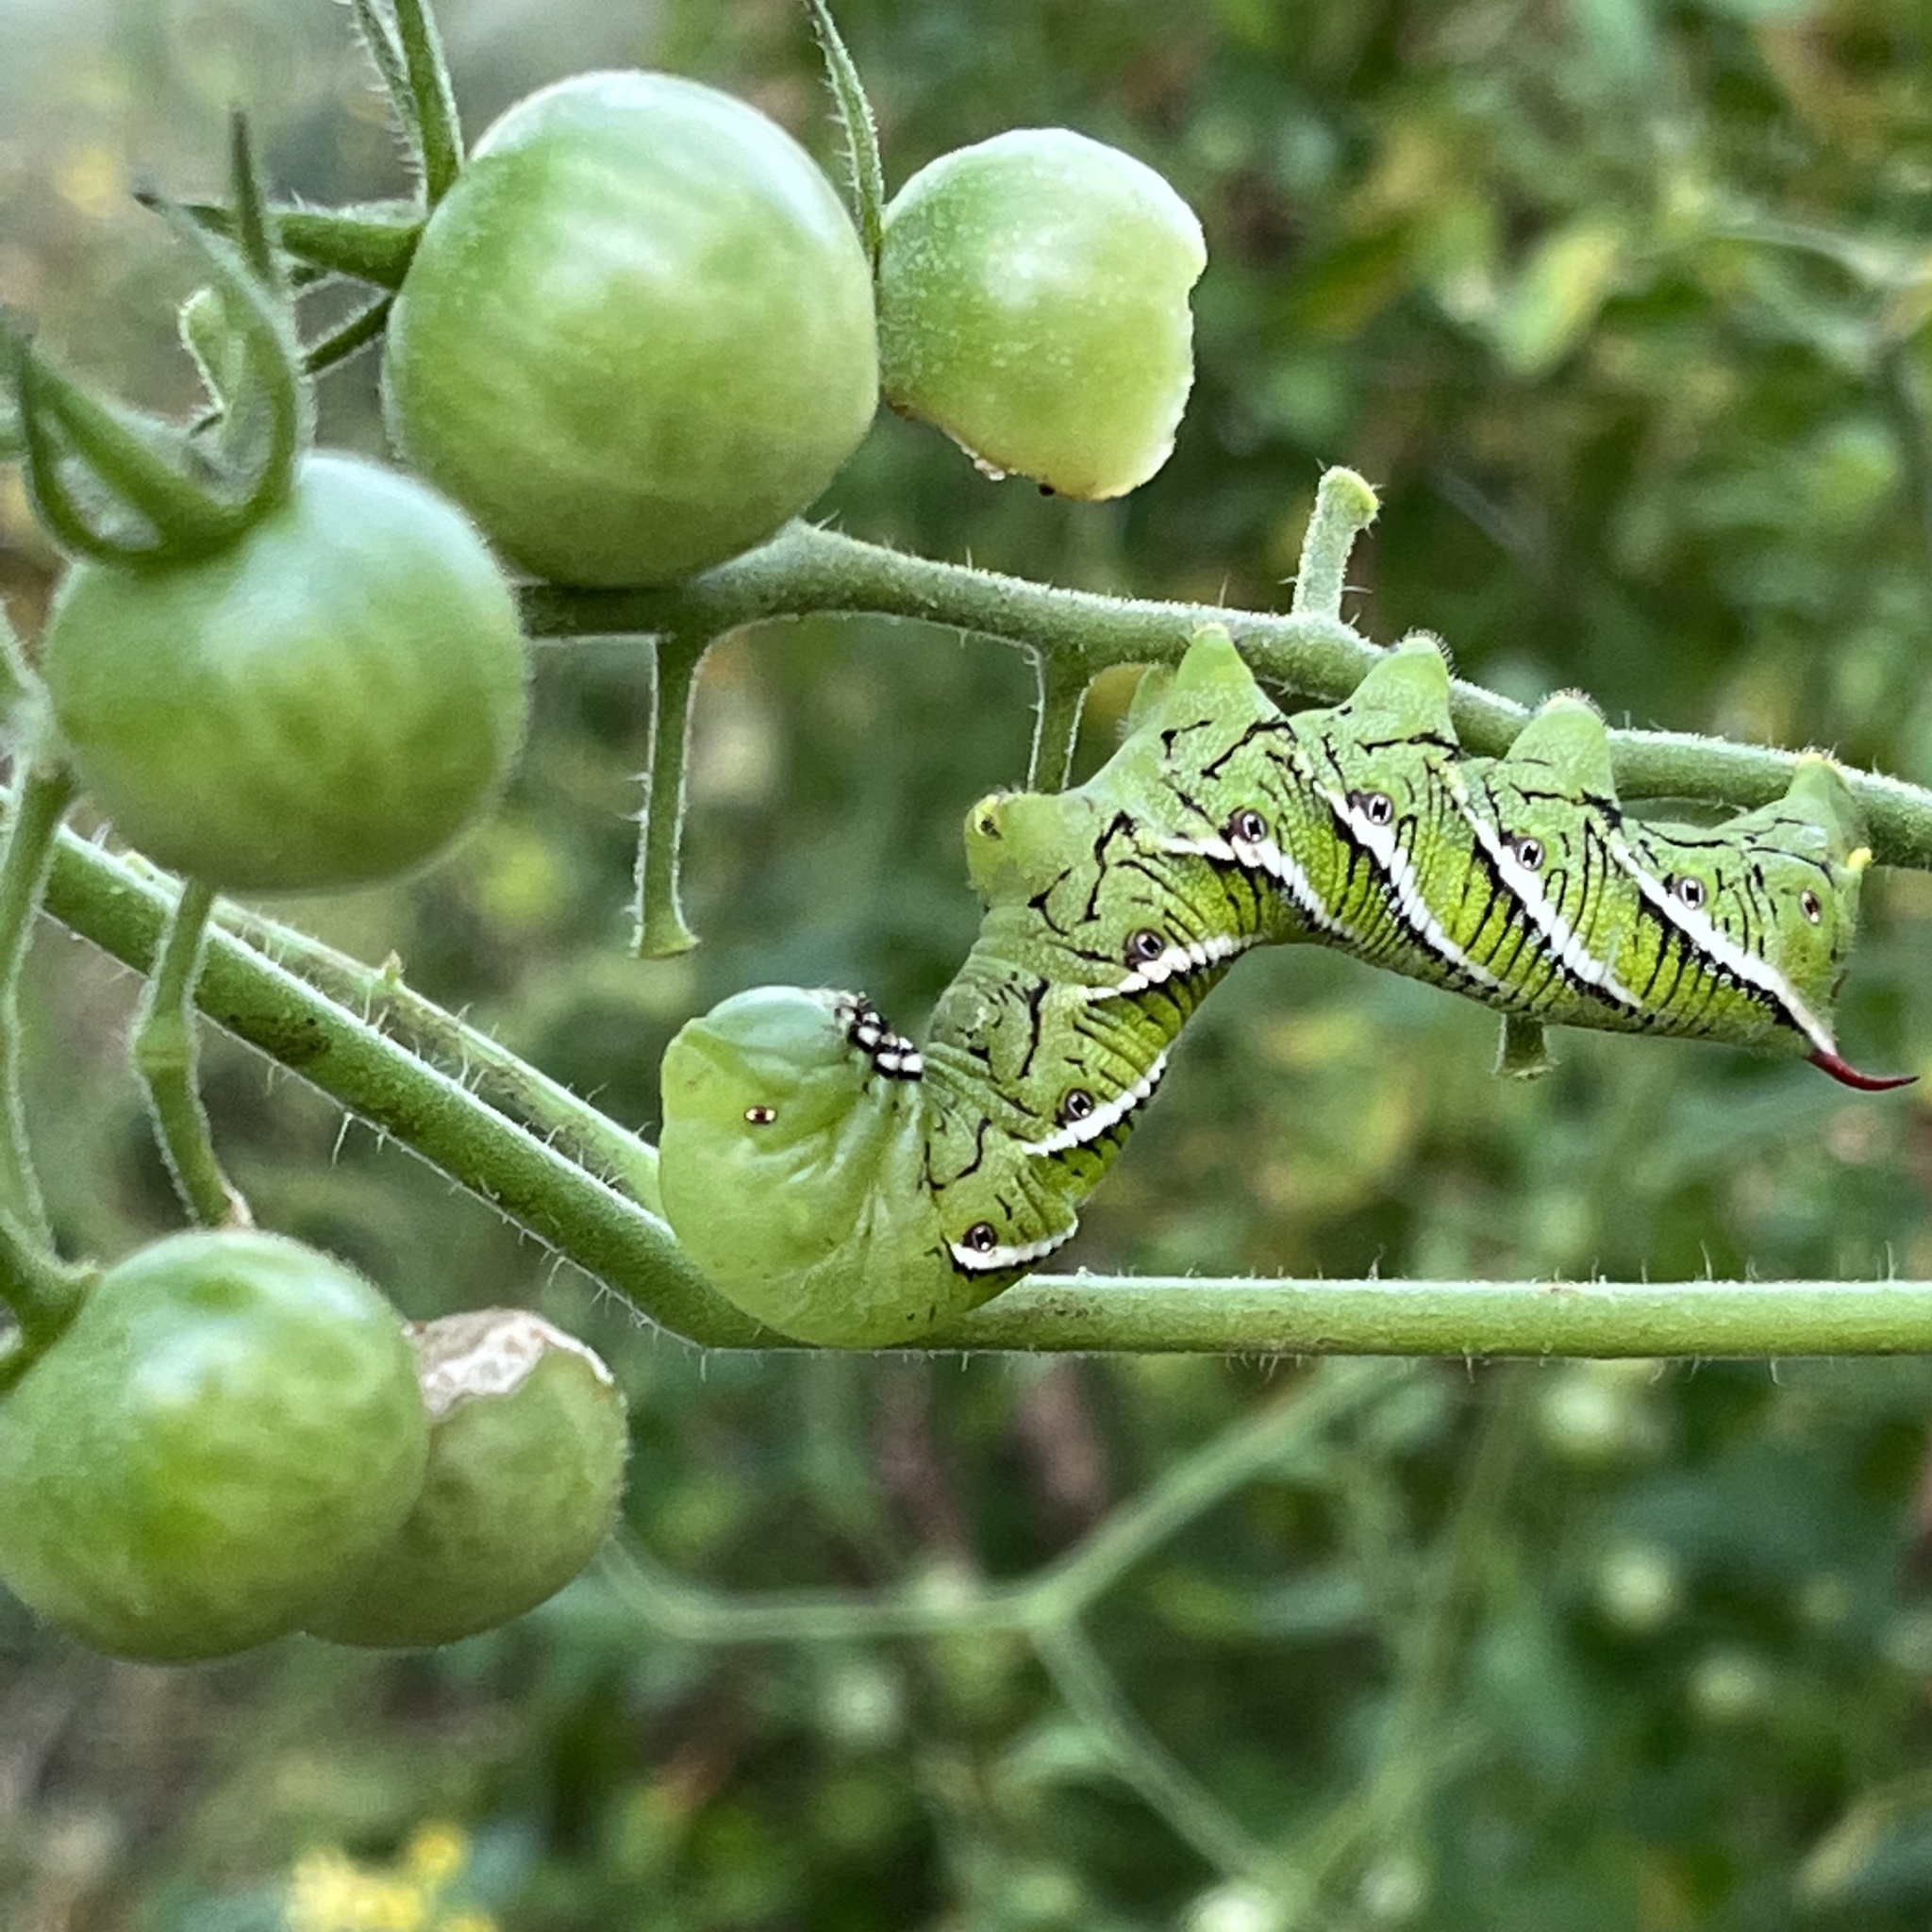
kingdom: Animalia
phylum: Arthropoda
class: Insecta
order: Lepidoptera
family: Sphingidae
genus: Manduca
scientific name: Manduca sexta
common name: Carolina sphinx
